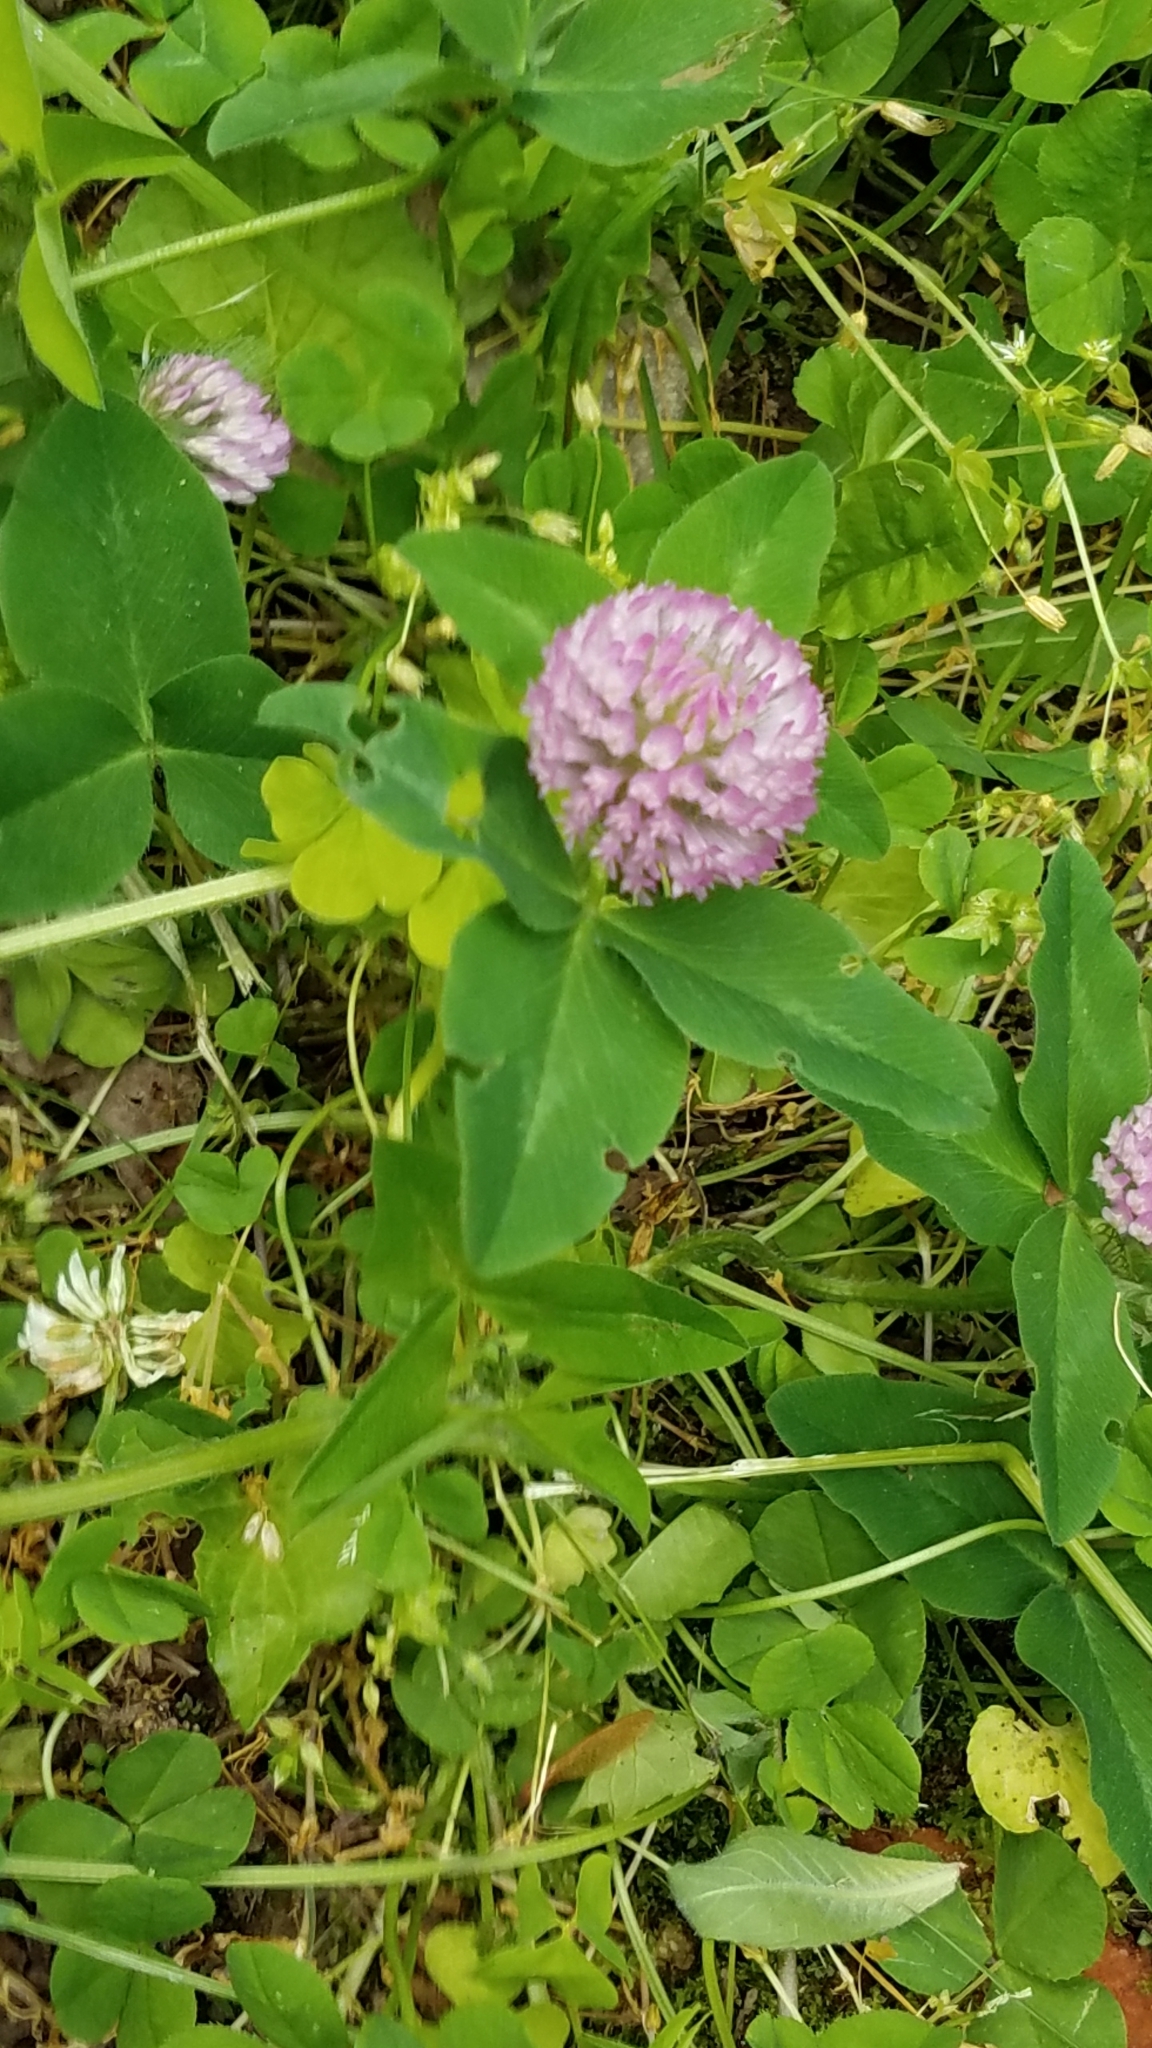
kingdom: Plantae
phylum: Tracheophyta
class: Magnoliopsida
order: Fabales
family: Fabaceae
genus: Trifolium
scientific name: Trifolium pratense
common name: Red clover
